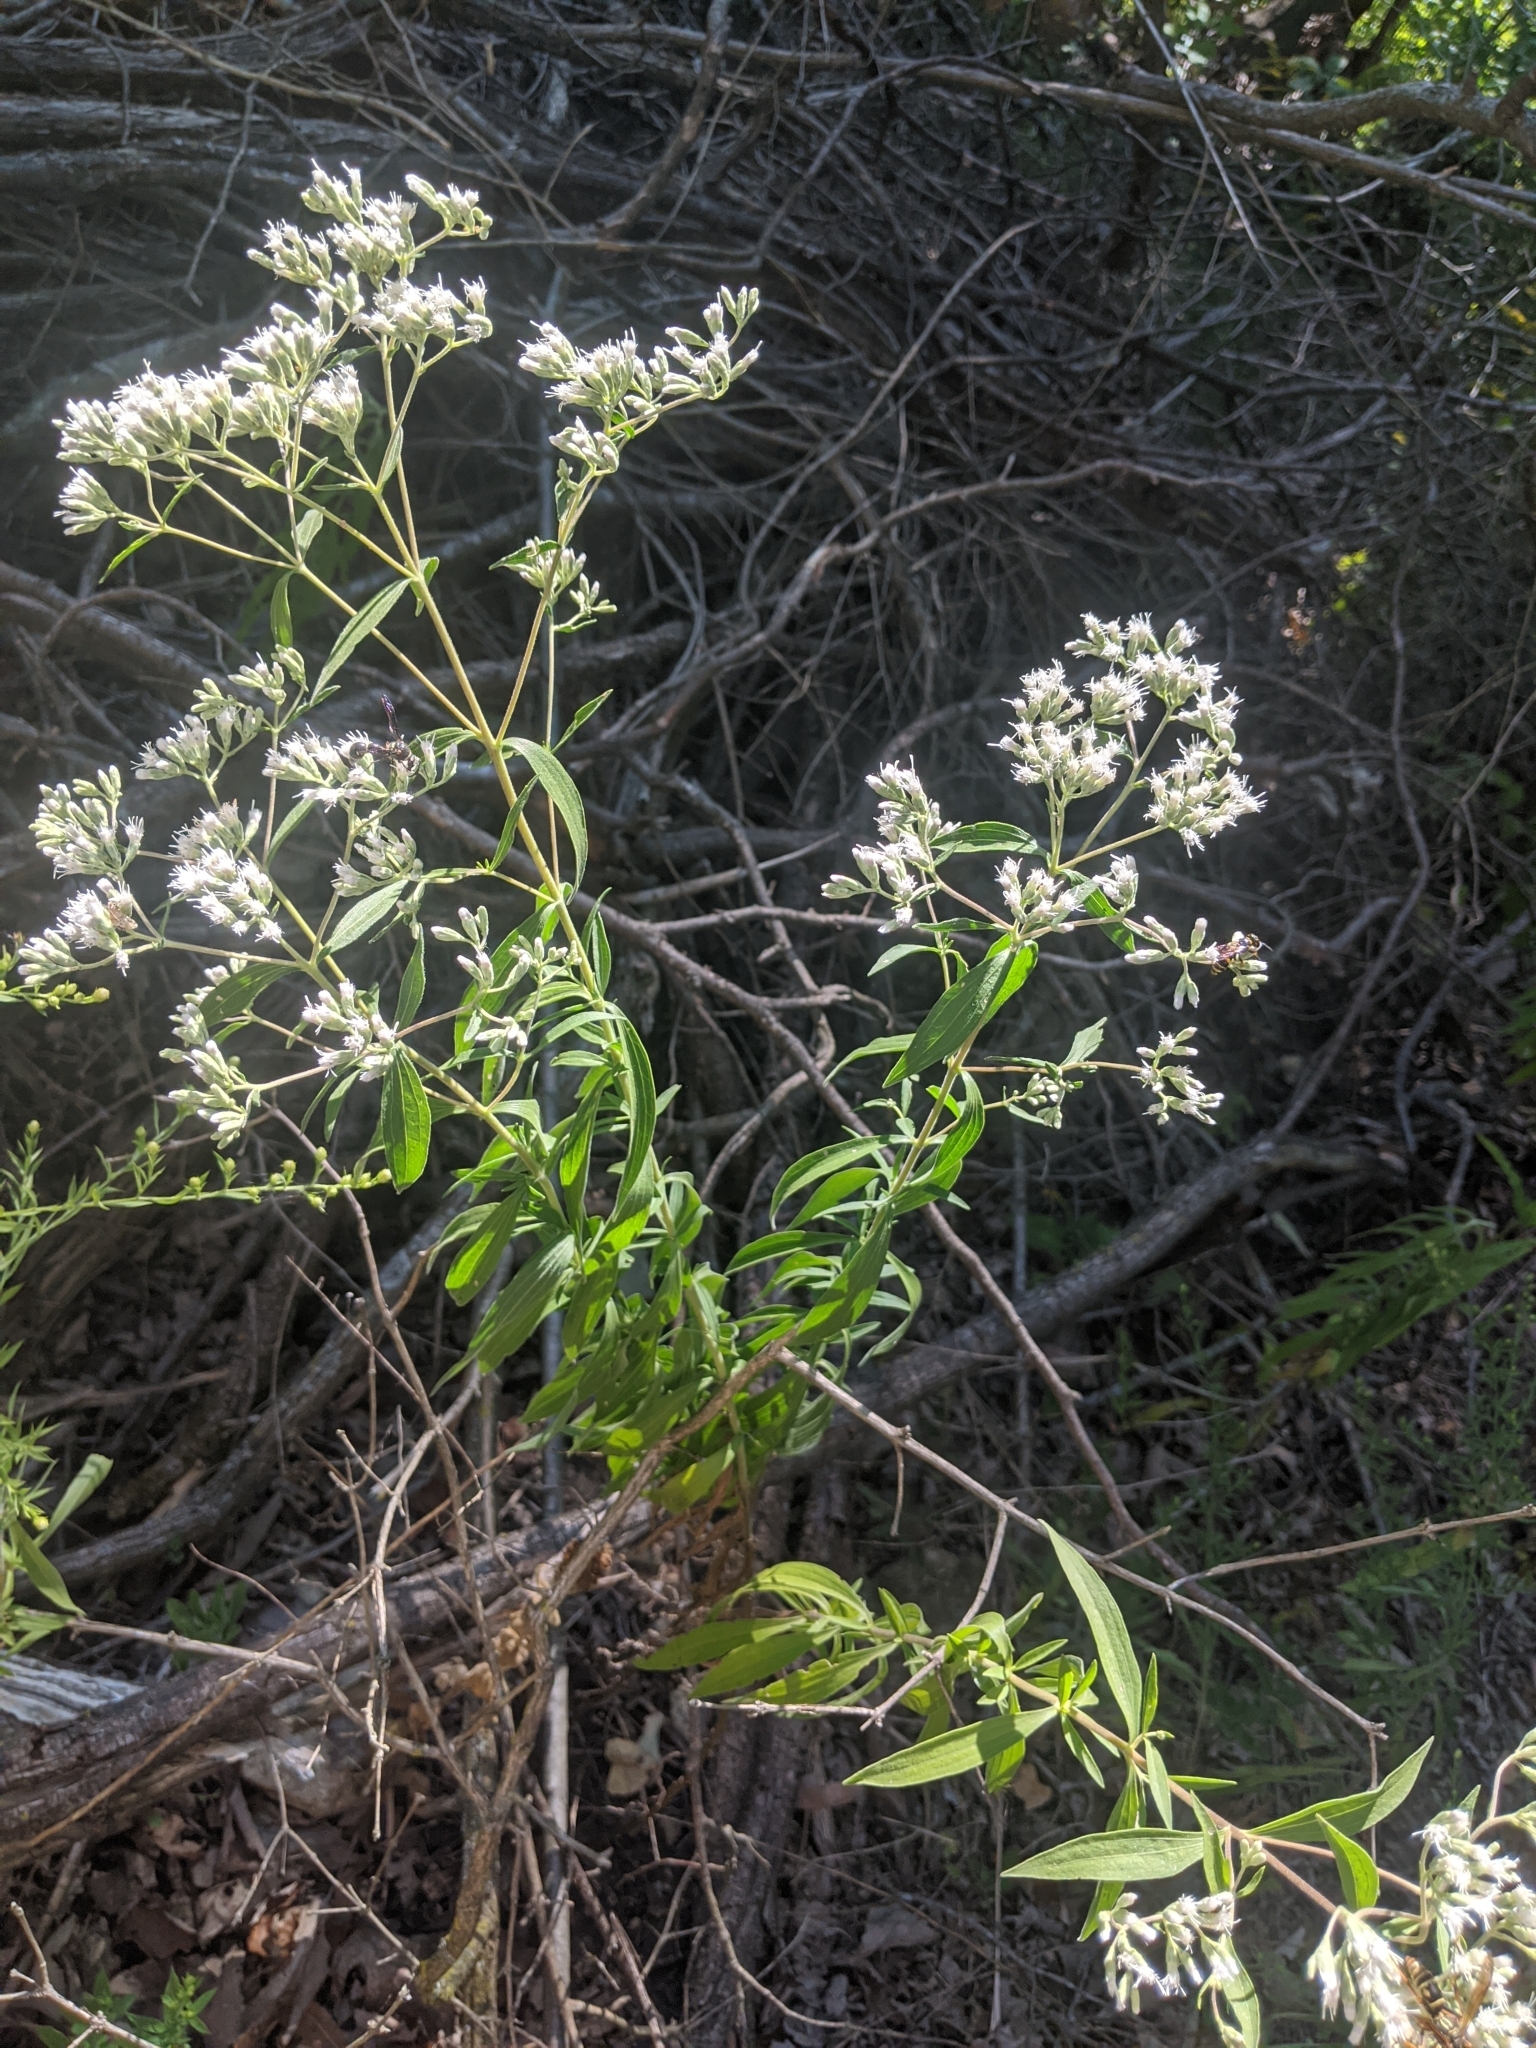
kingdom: Plantae
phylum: Tracheophyta
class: Magnoliopsida
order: Asterales
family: Asteraceae
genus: Eupatorium
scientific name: Eupatorium altissimum
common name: Tall thoroughwort
